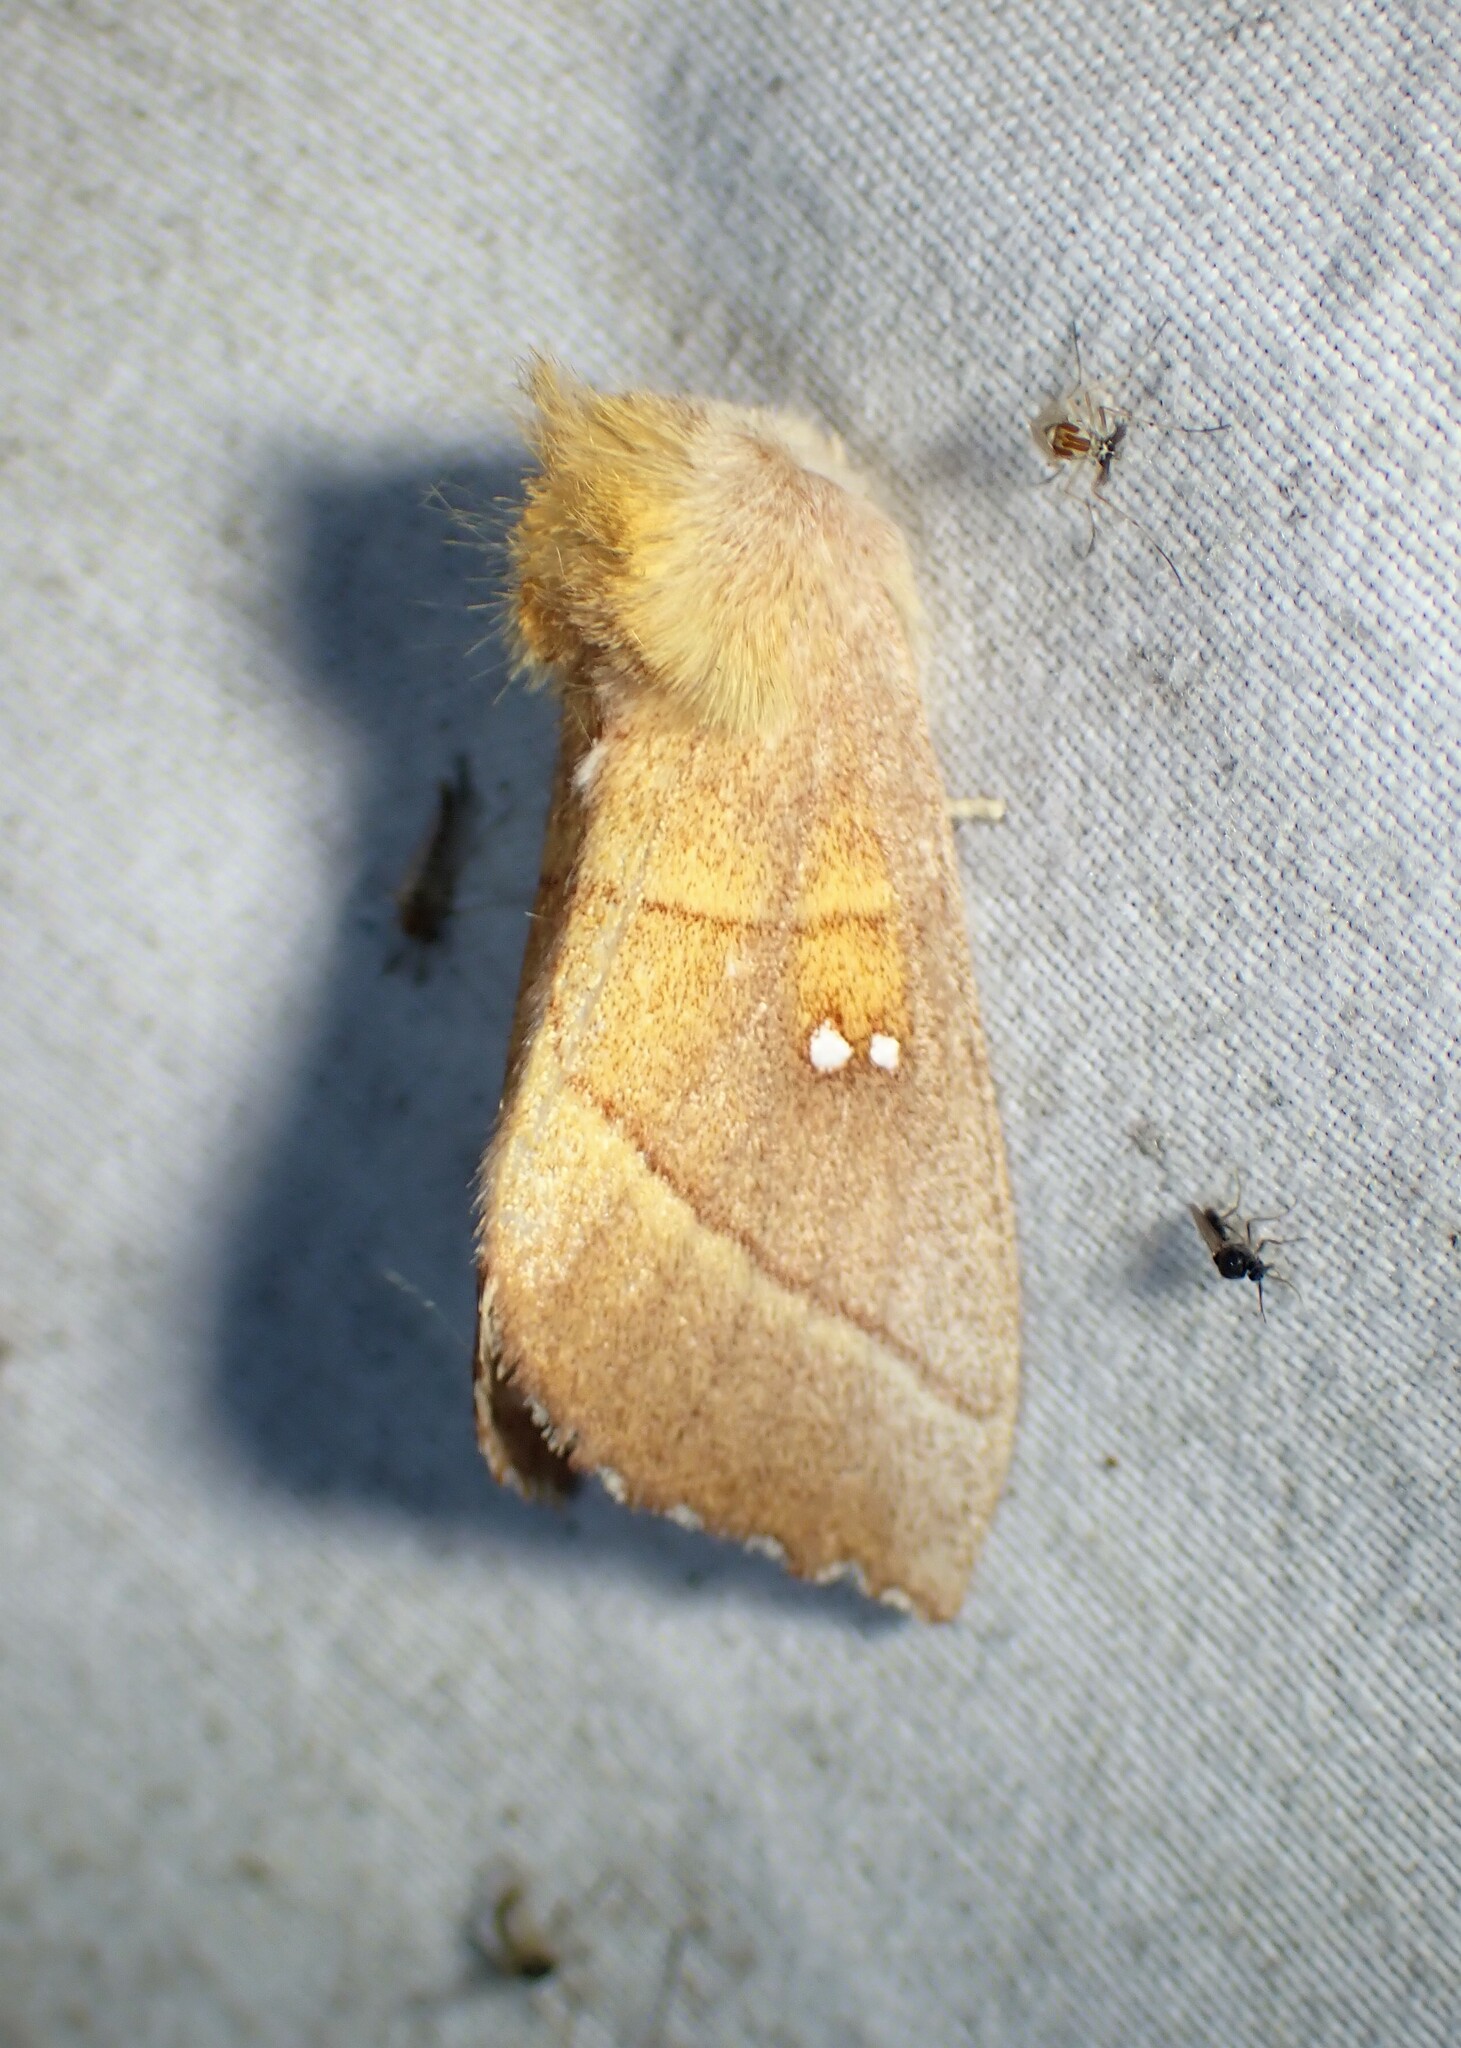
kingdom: Animalia
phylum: Arthropoda
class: Insecta
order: Lepidoptera
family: Notodontidae
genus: Nadata
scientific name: Nadata gibbosa
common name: White-dotted prominent
